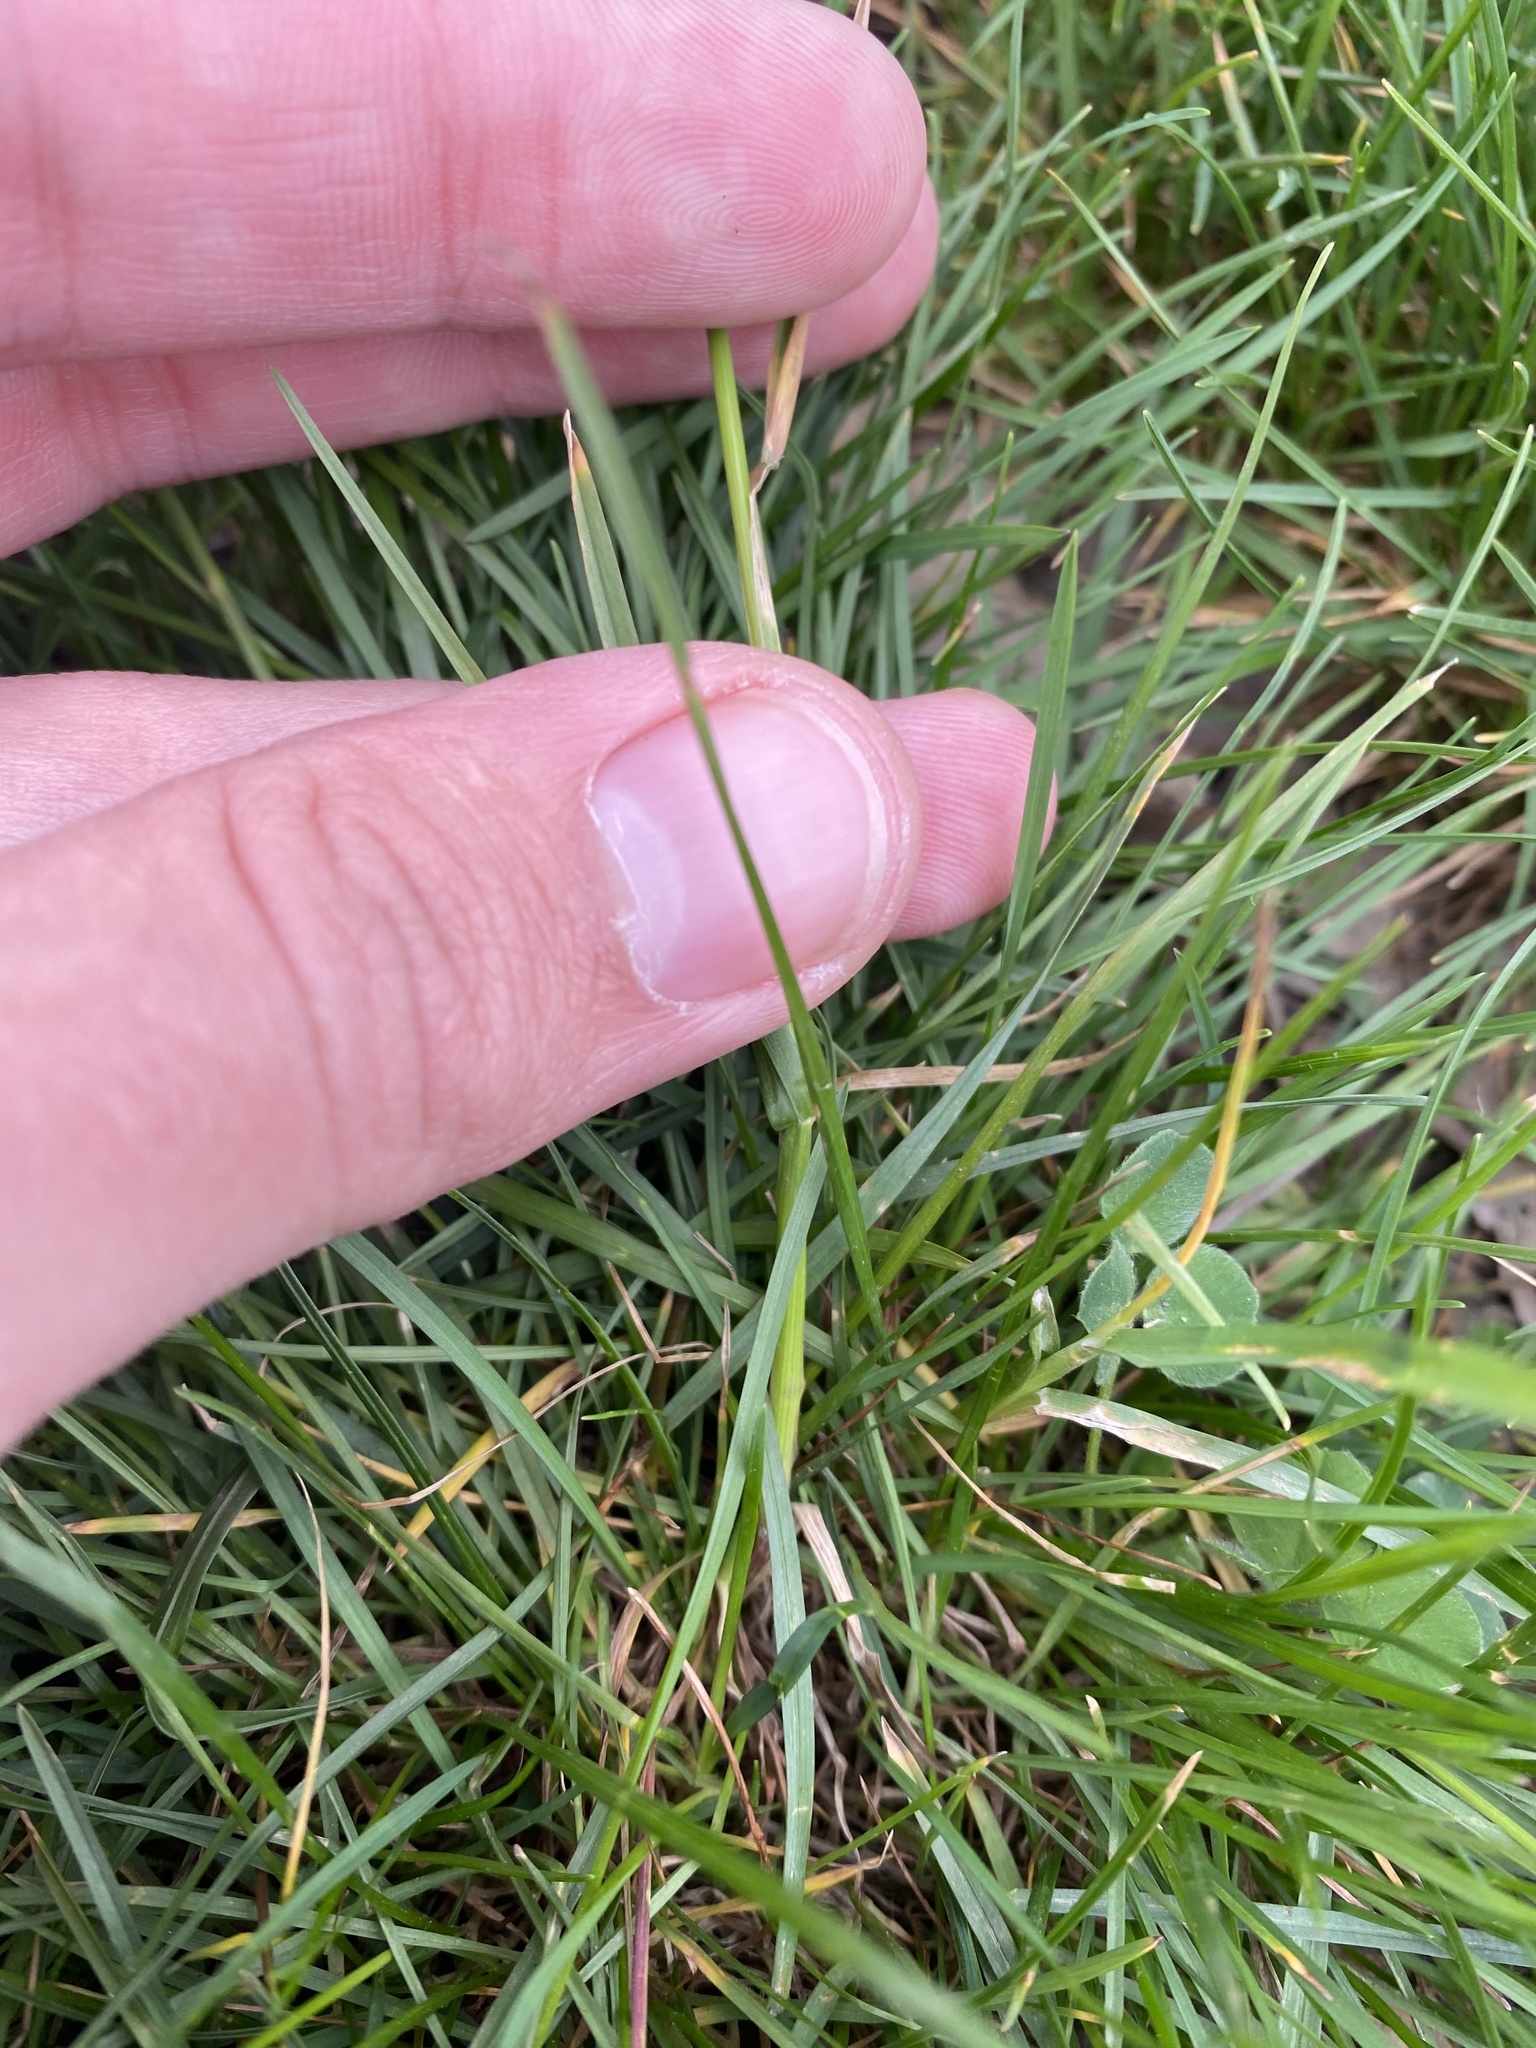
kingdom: Plantae
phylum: Tracheophyta
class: Liliopsida
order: Poales
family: Poaceae
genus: Poa
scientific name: Poa bulbosa
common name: Bulbous bluegrass
